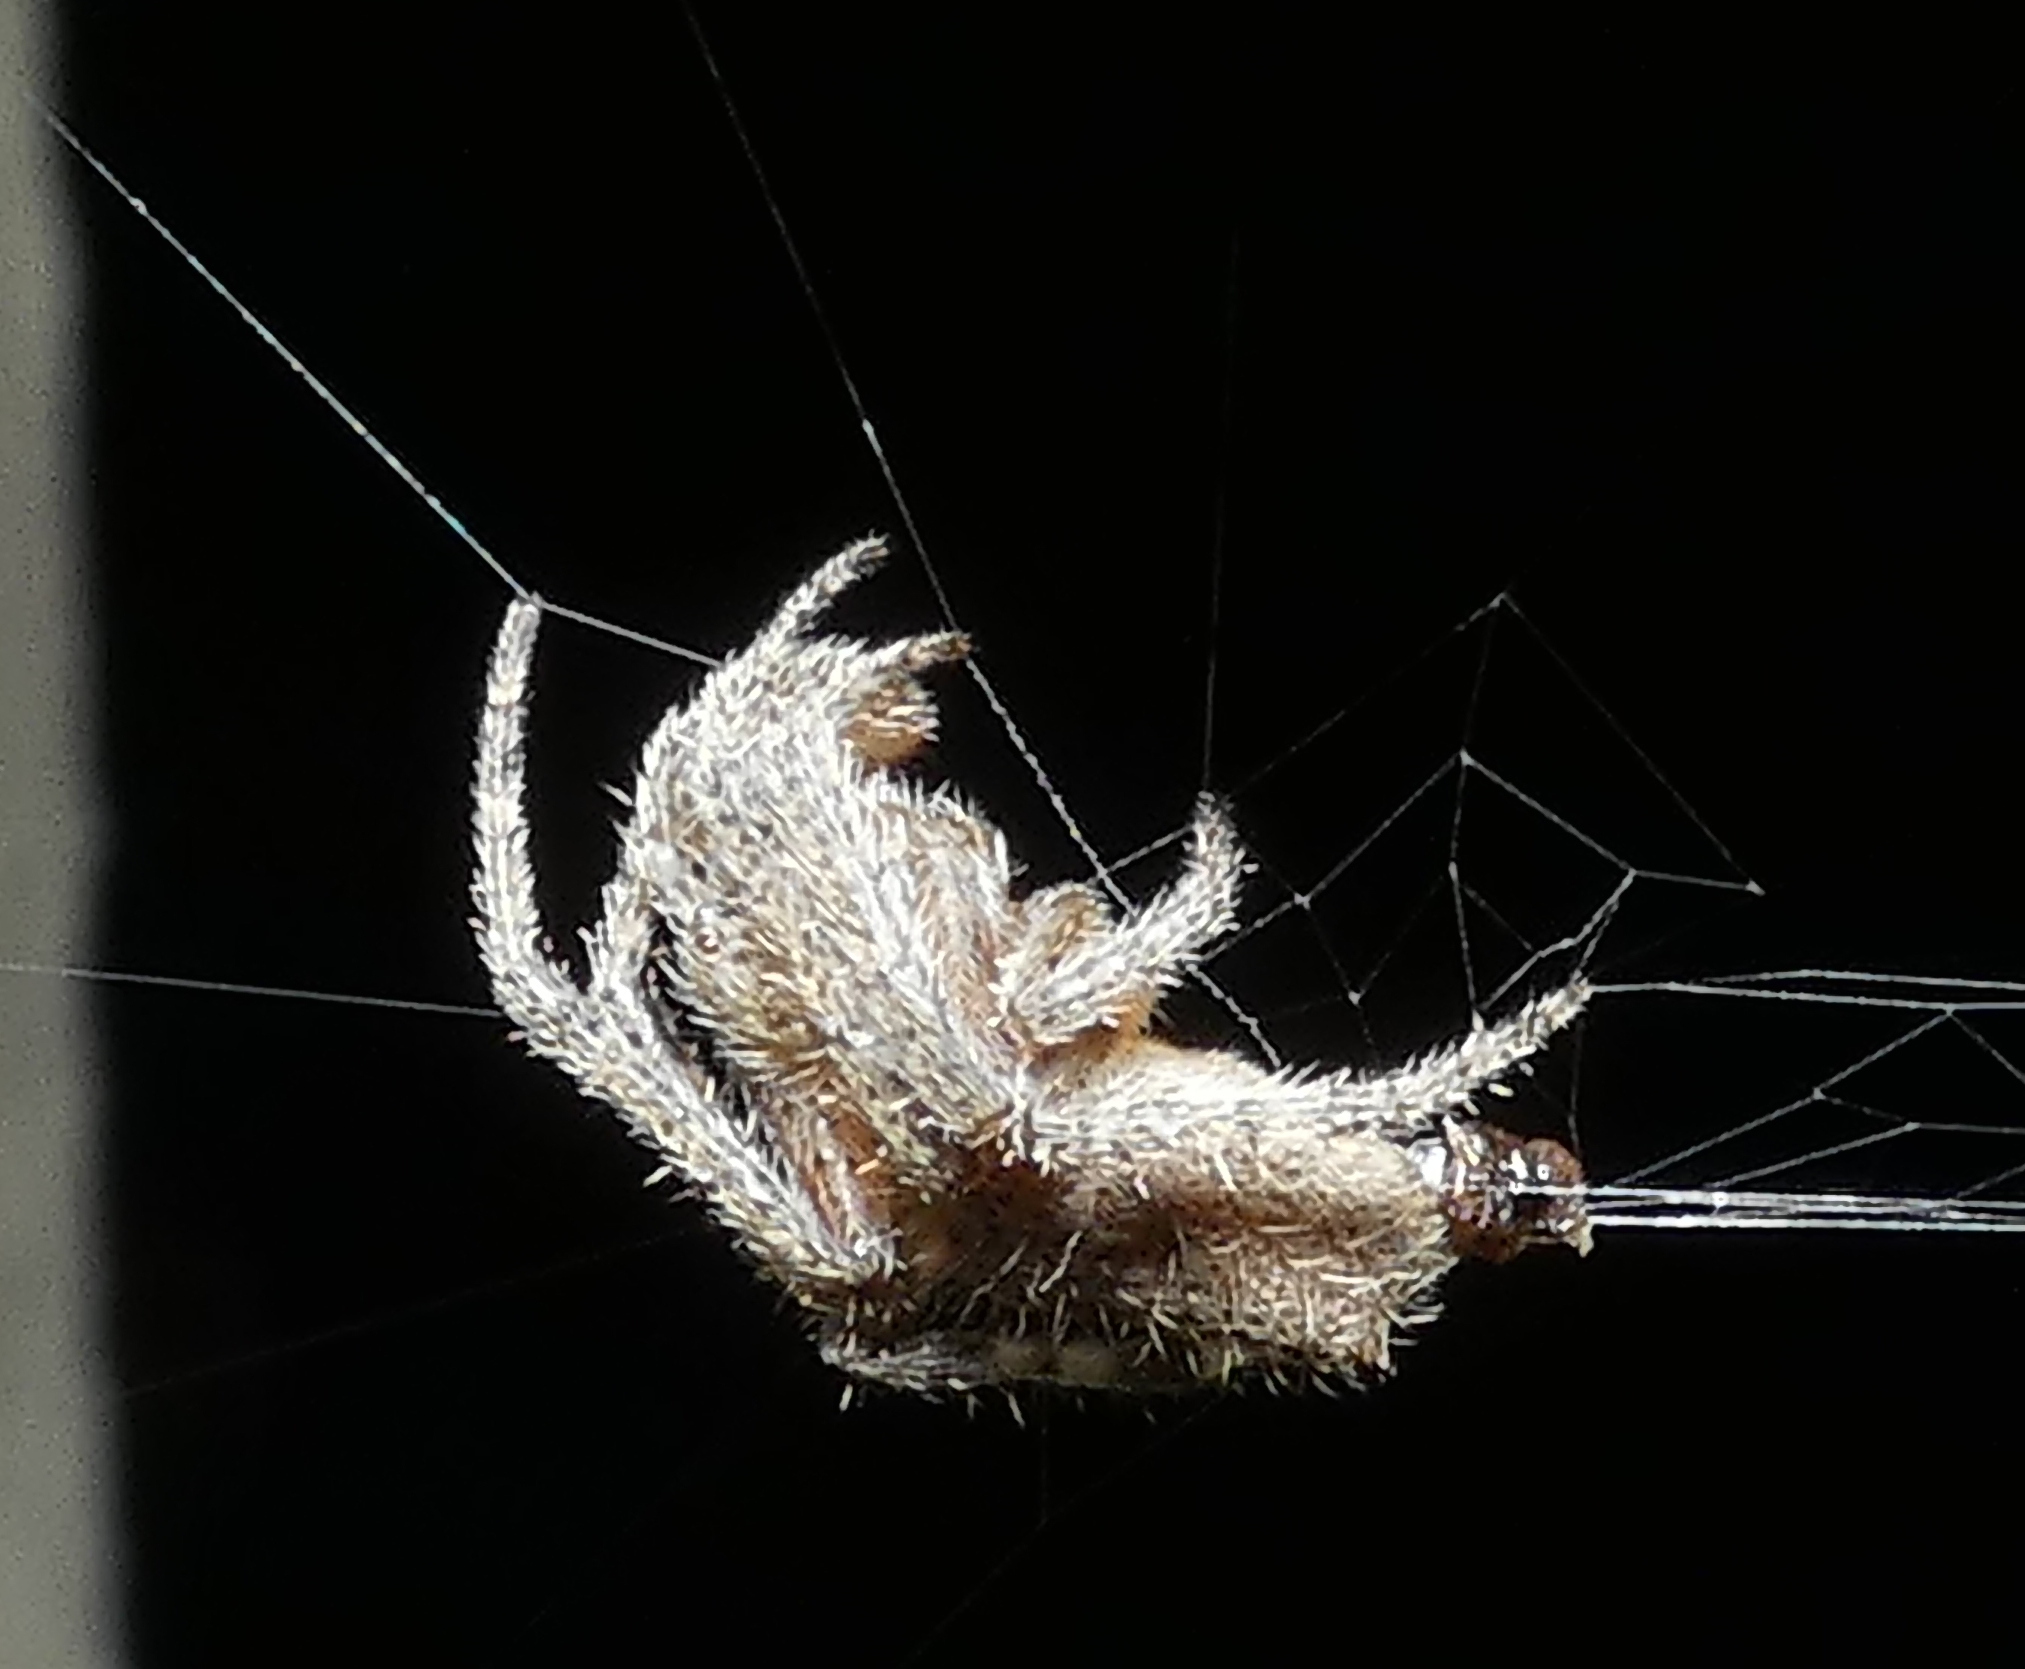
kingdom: Animalia
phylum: Arthropoda
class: Arachnida
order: Araneae
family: Araneidae
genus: Eriophora
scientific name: Eriophora edax
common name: Orb weavers
